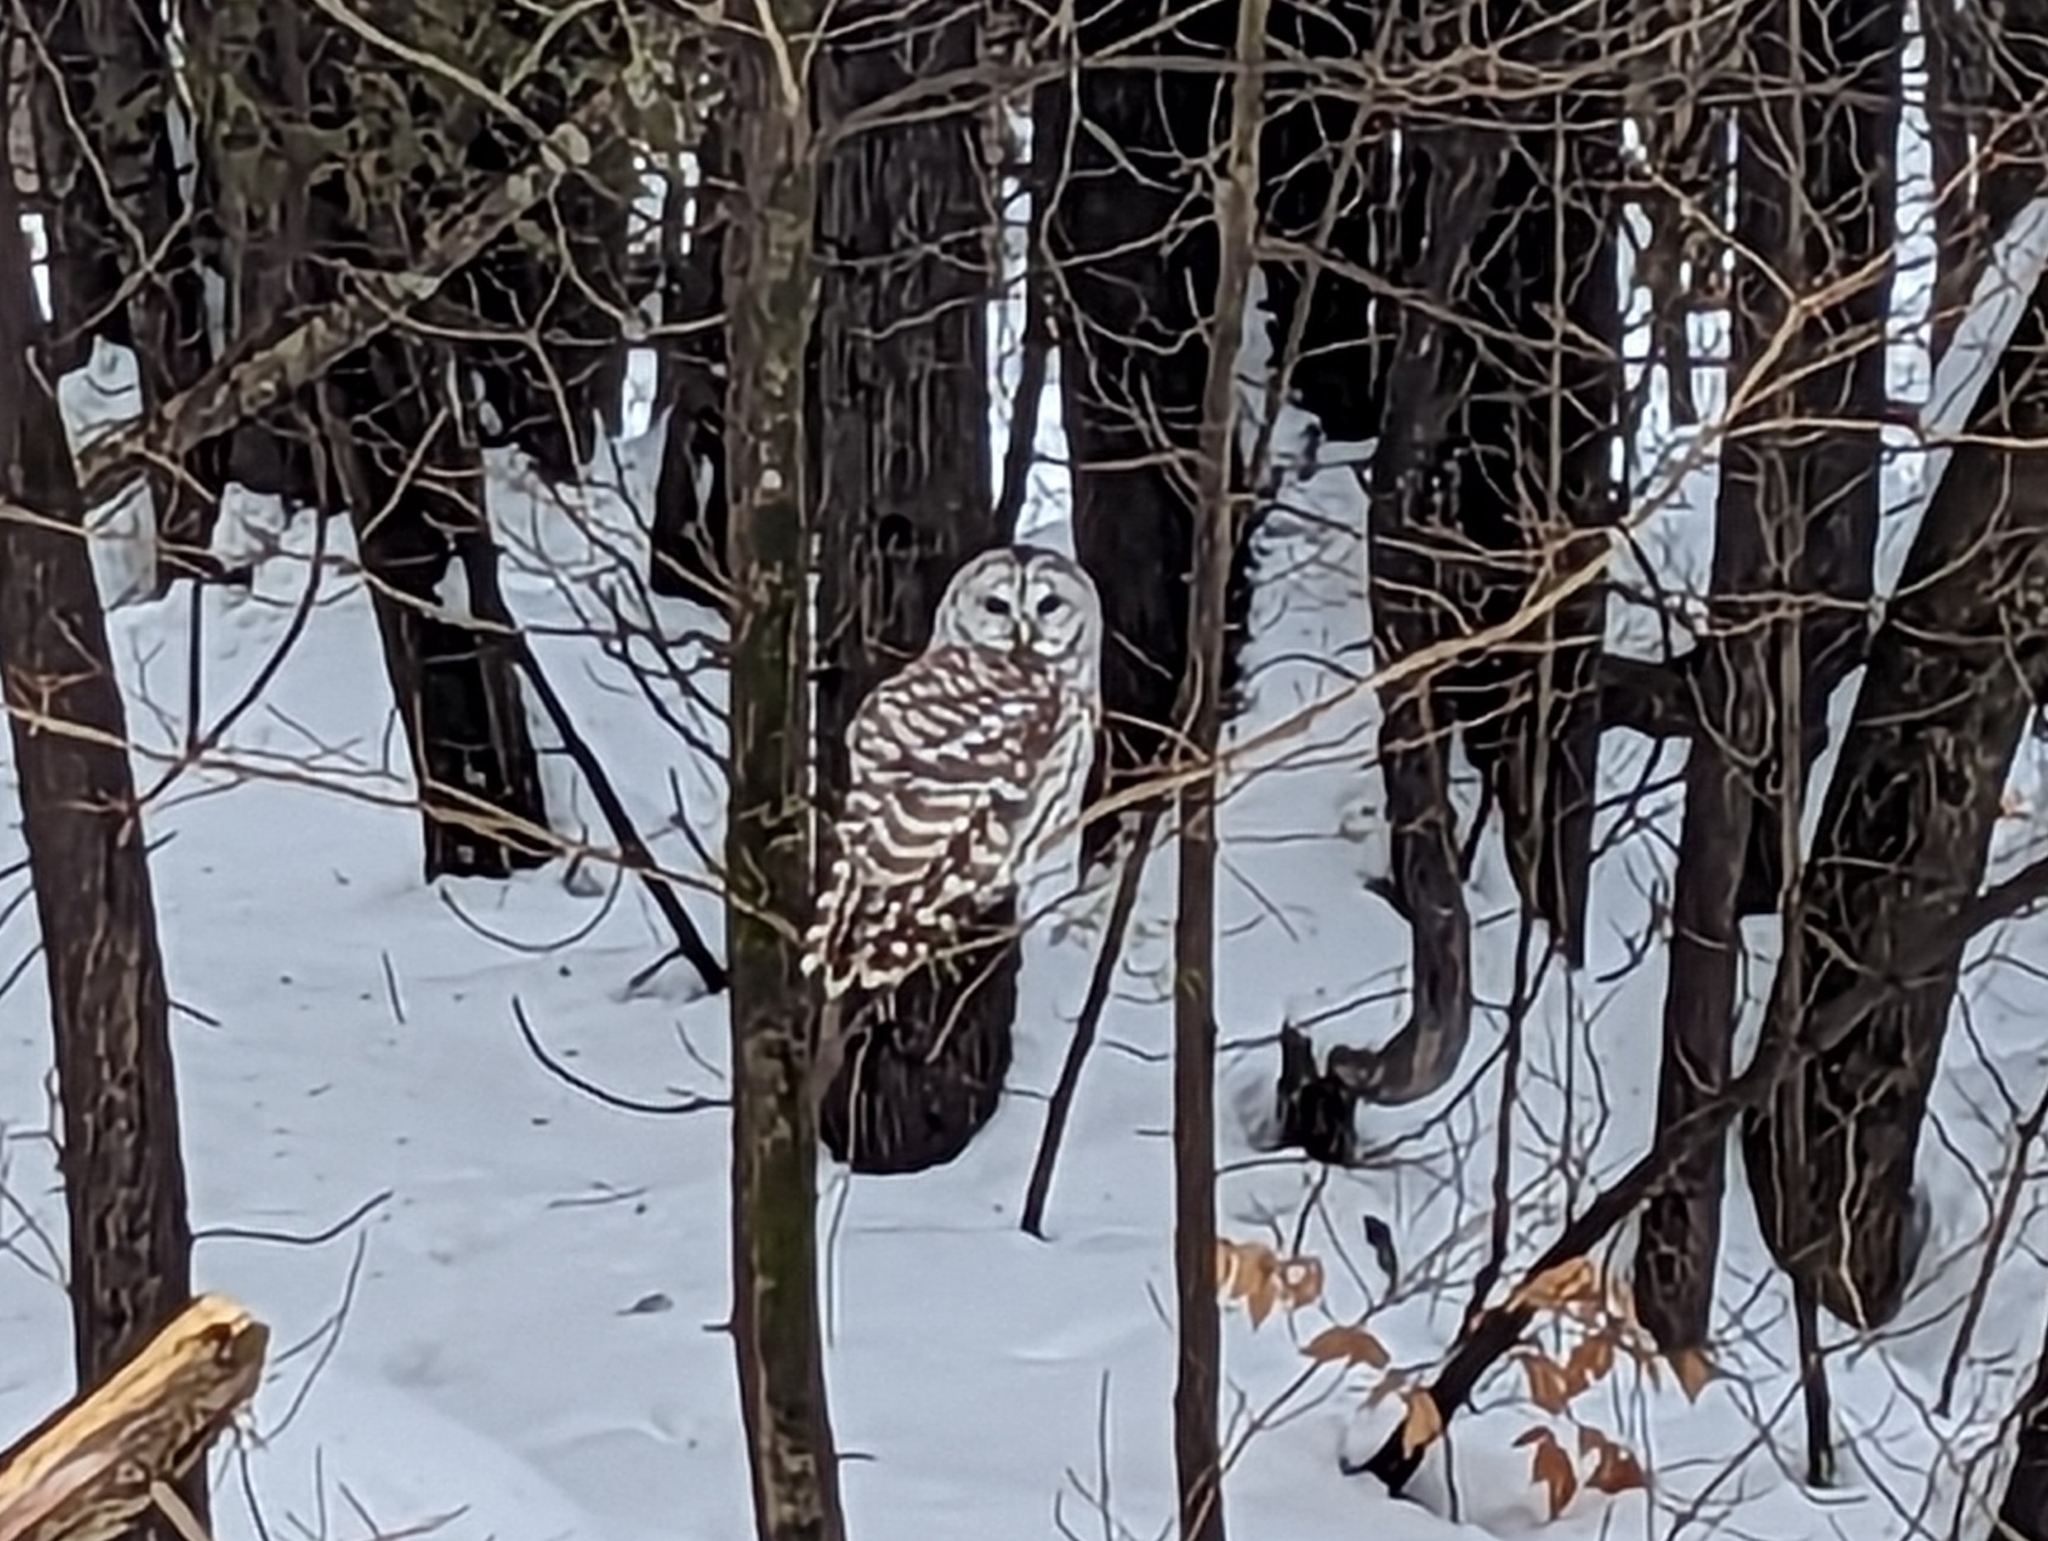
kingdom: Animalia
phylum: Chordata
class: Aves
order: Strigiformes
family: Strigidae
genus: Strix
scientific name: Strix varia
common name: Barred owl
